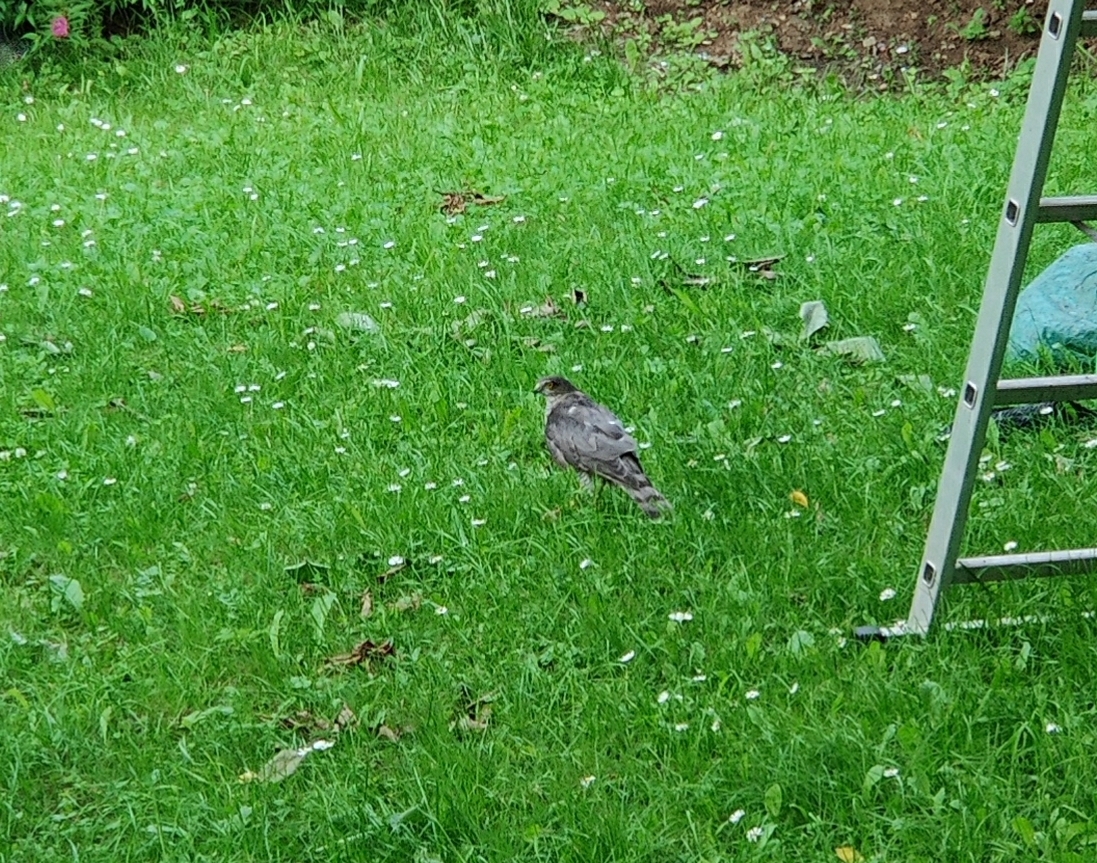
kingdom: Animalia
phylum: Chordata
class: Aves
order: Accipitriformes
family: Accipitridae
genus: Accipiter
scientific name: Accipiter nisus
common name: Eurasian sparrowhawk
